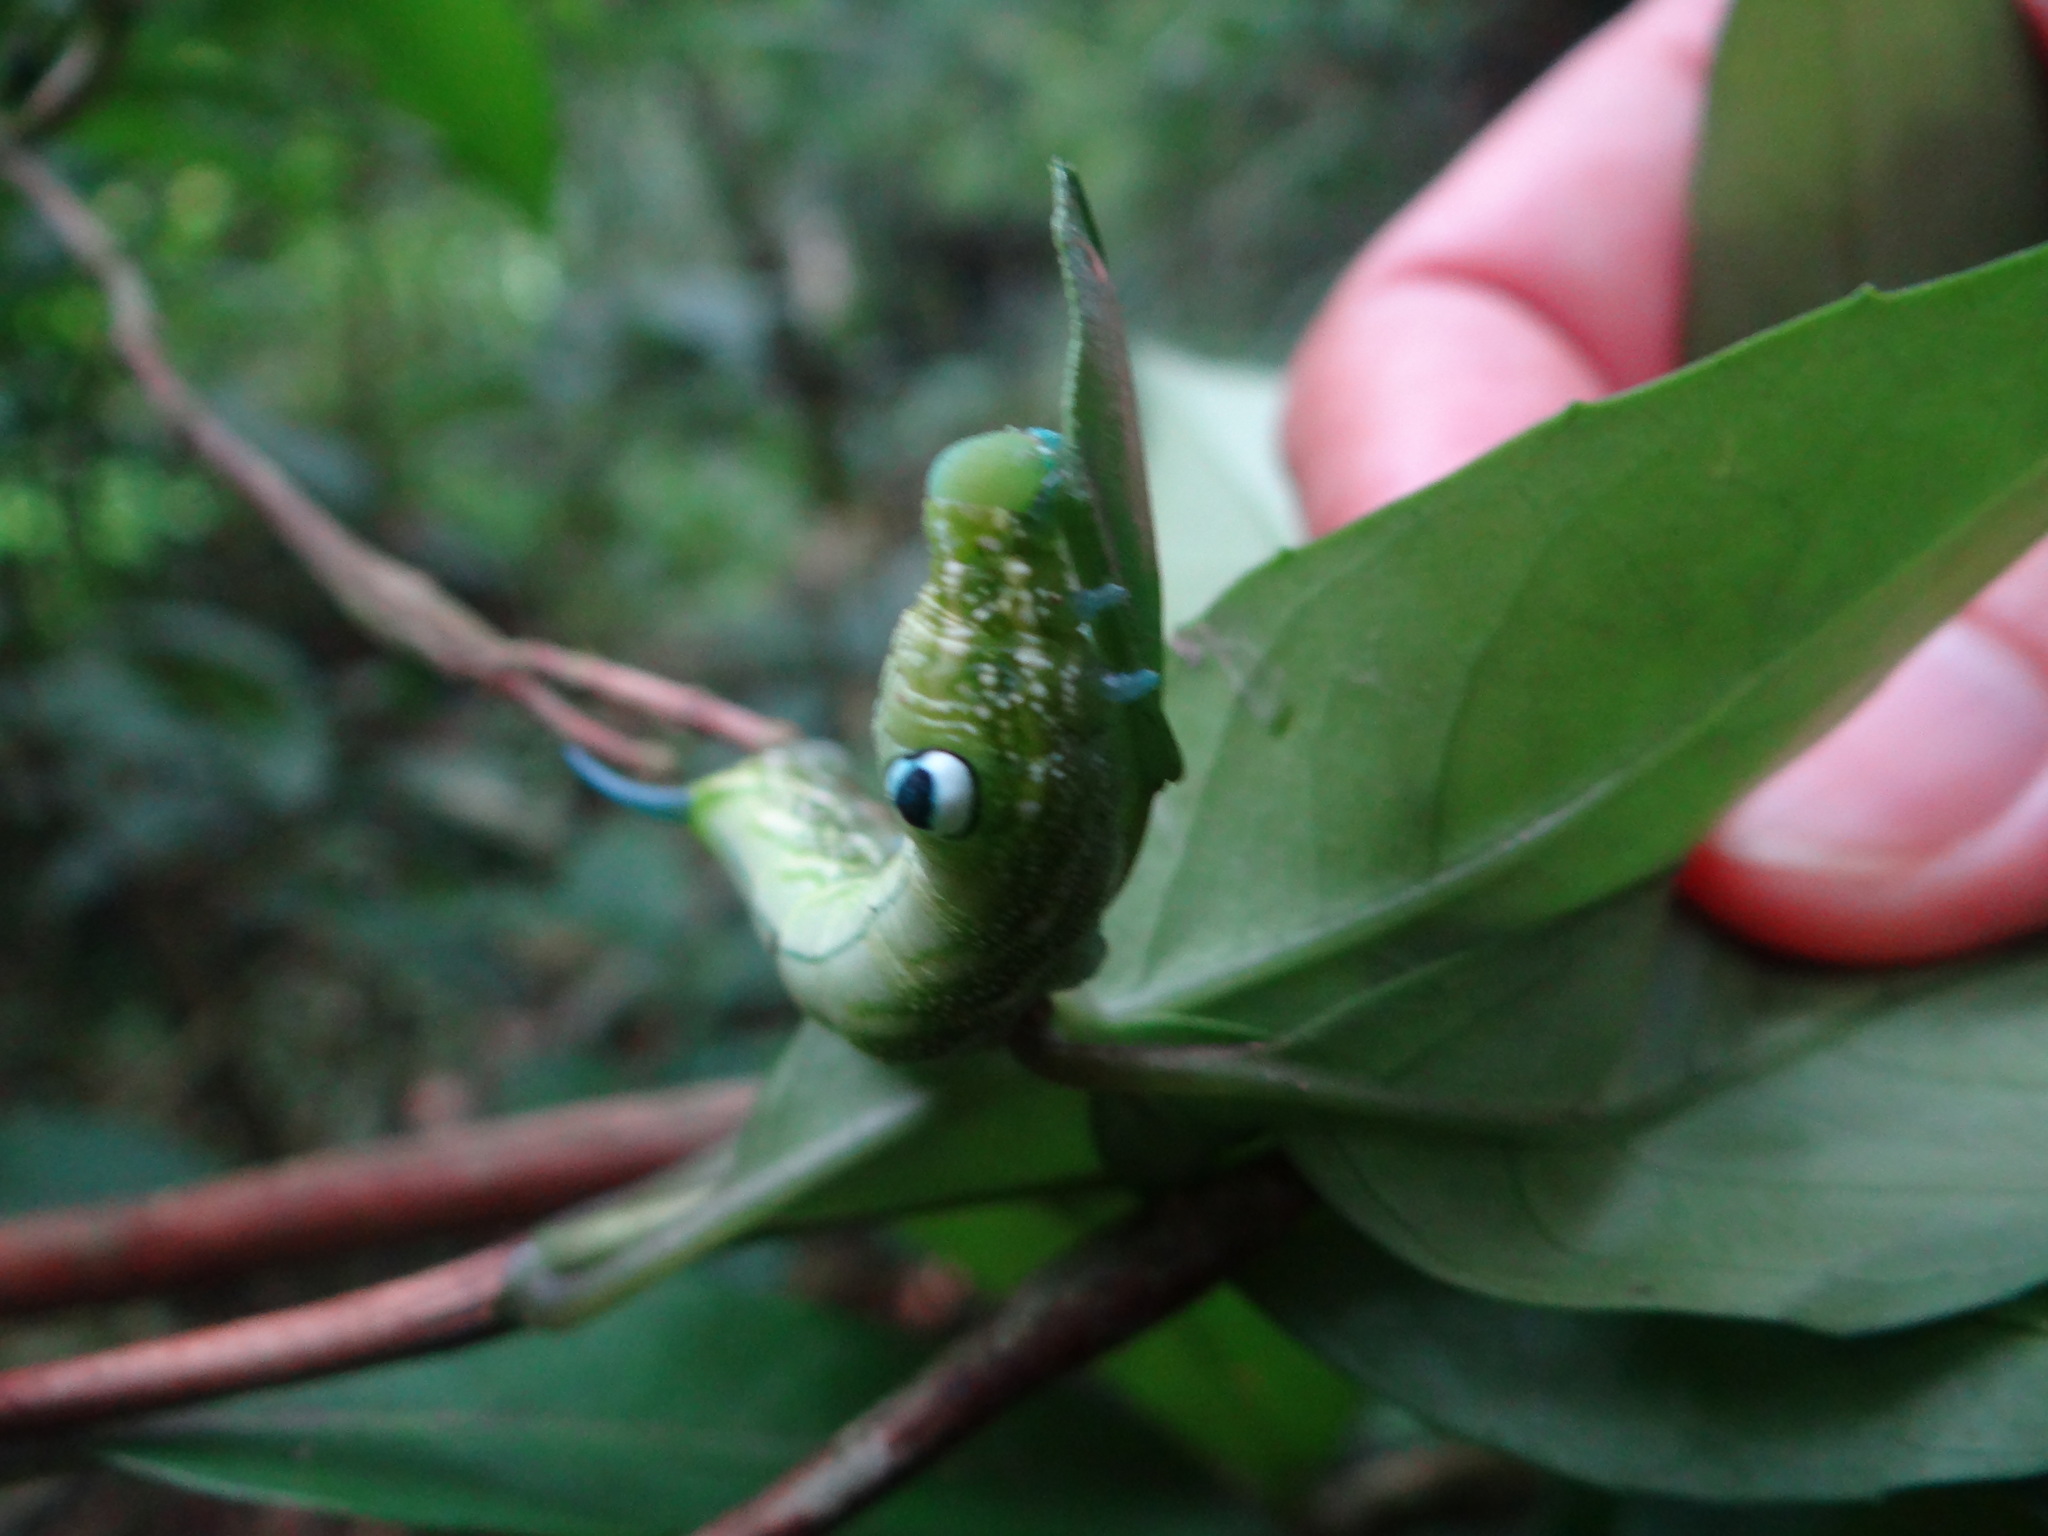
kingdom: Animalia
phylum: Arthropoda
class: Insecta
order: Lepidoptera
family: Sphingidae
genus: Rhagastis
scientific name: Rhagastis binoculata
